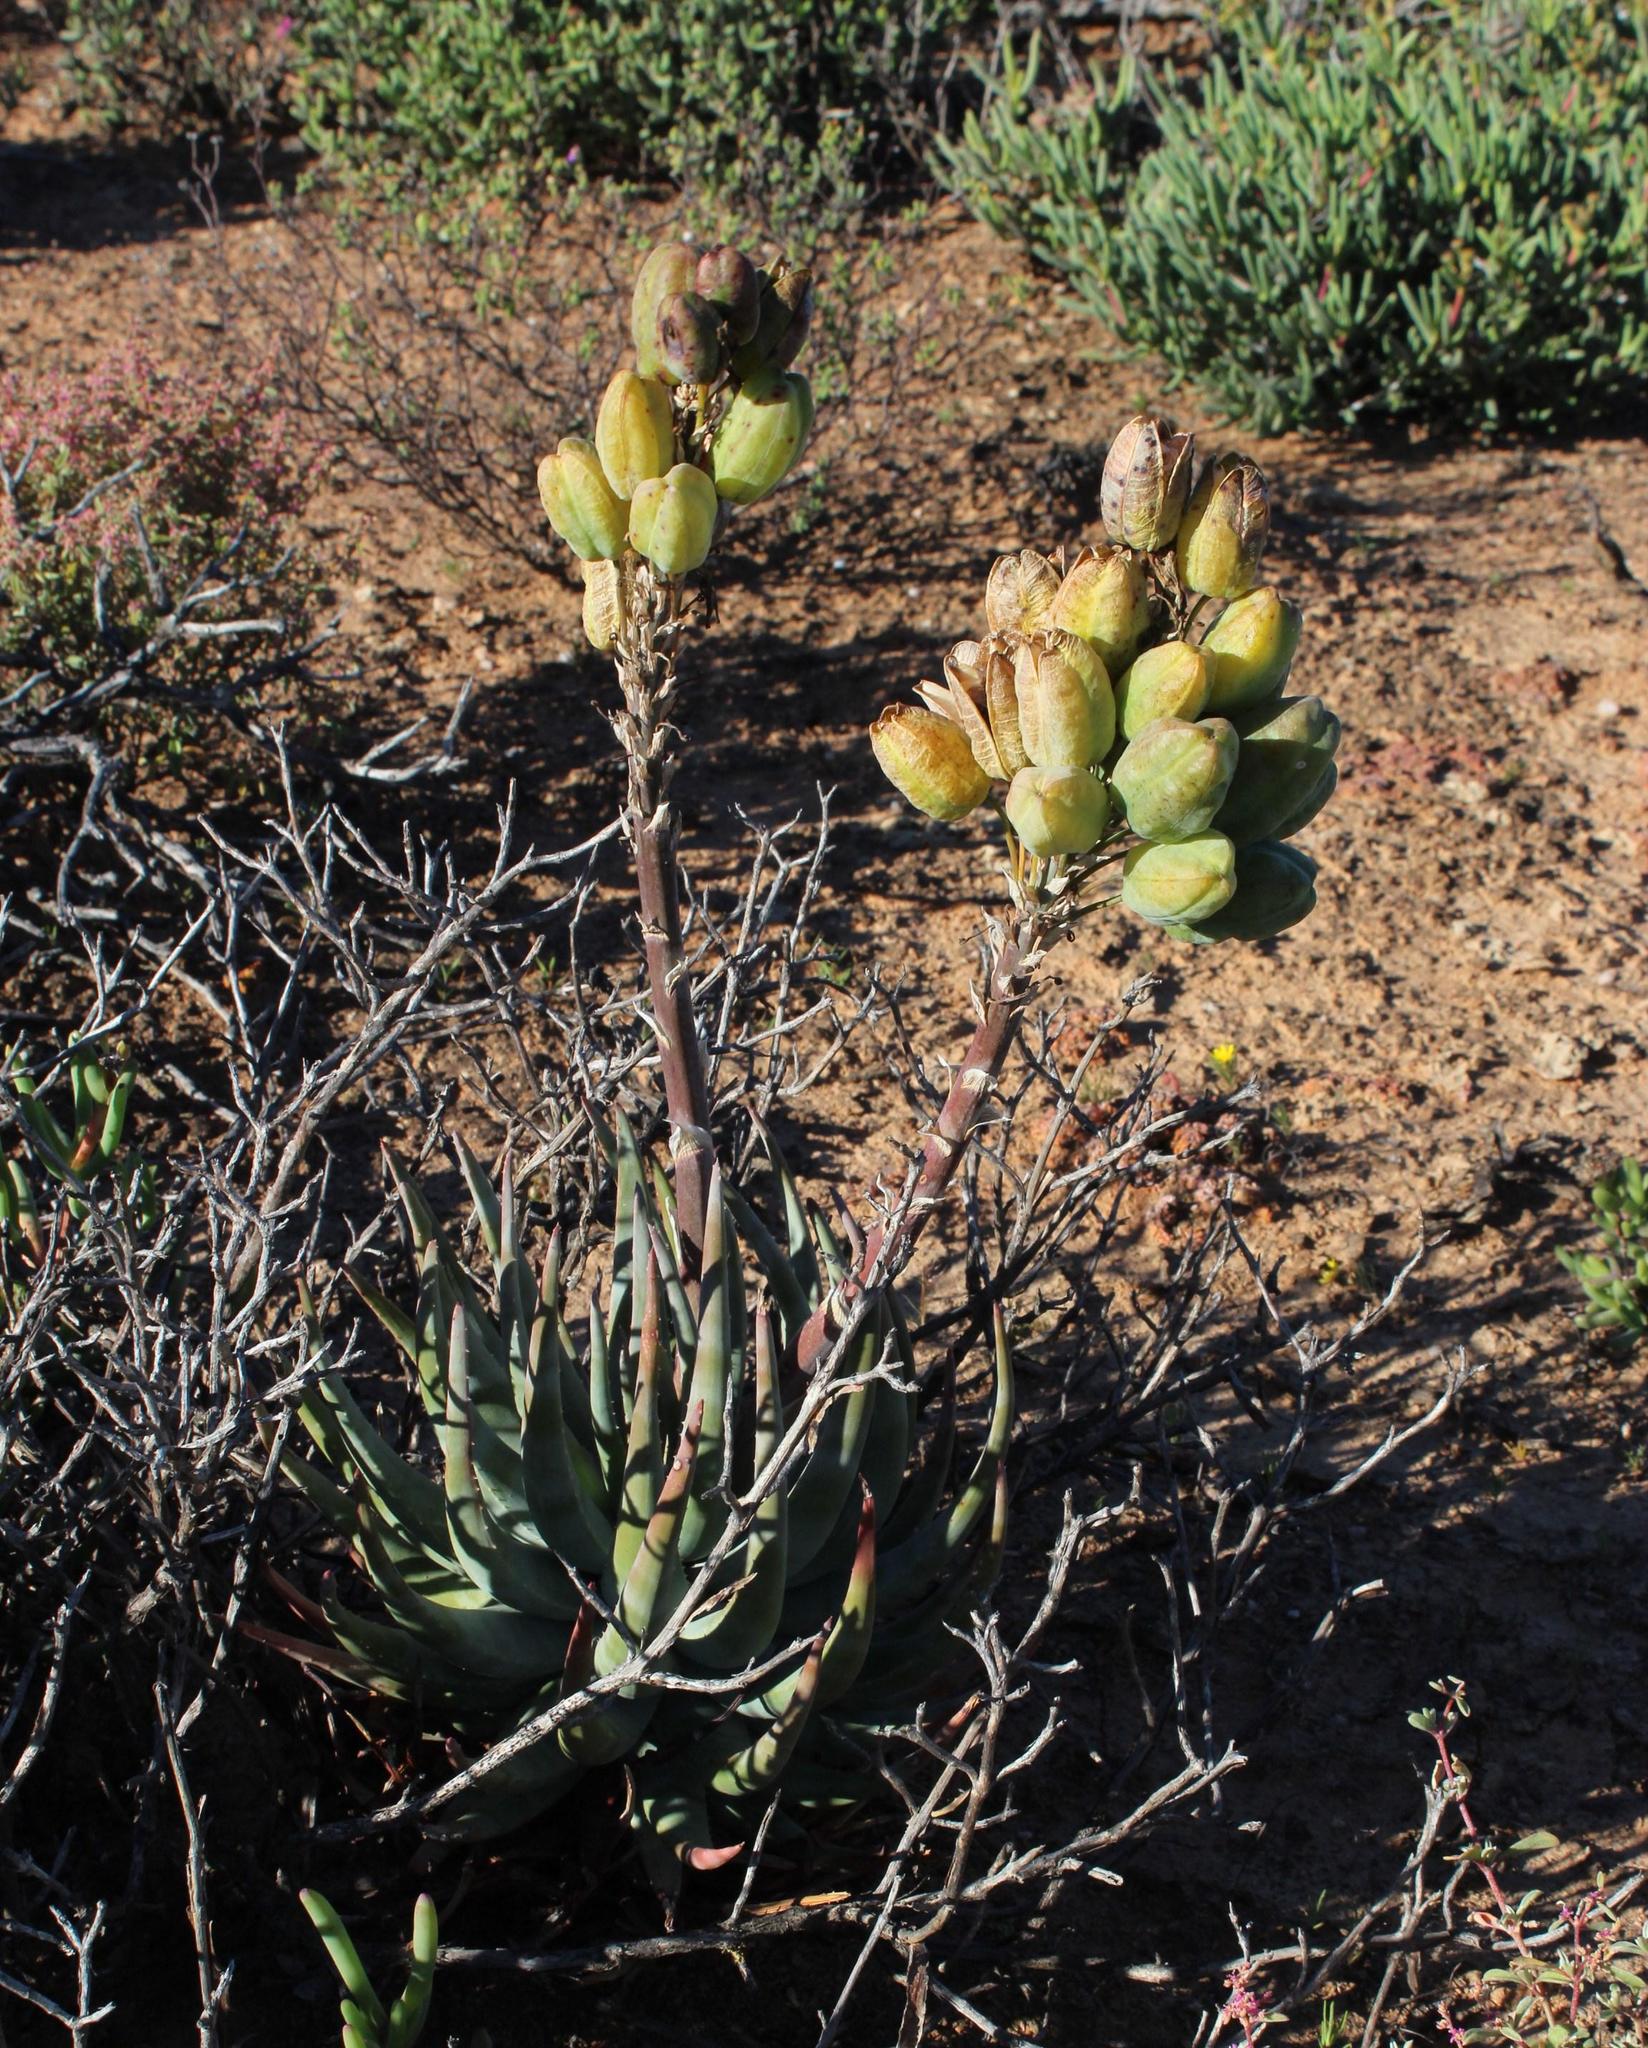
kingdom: Plantae
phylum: Tracheophyta
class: Liliopsida
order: Asparagales
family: Asphodelaceae
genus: Aloe
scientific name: Aloe krapohliana
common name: Krapohl's aloe
